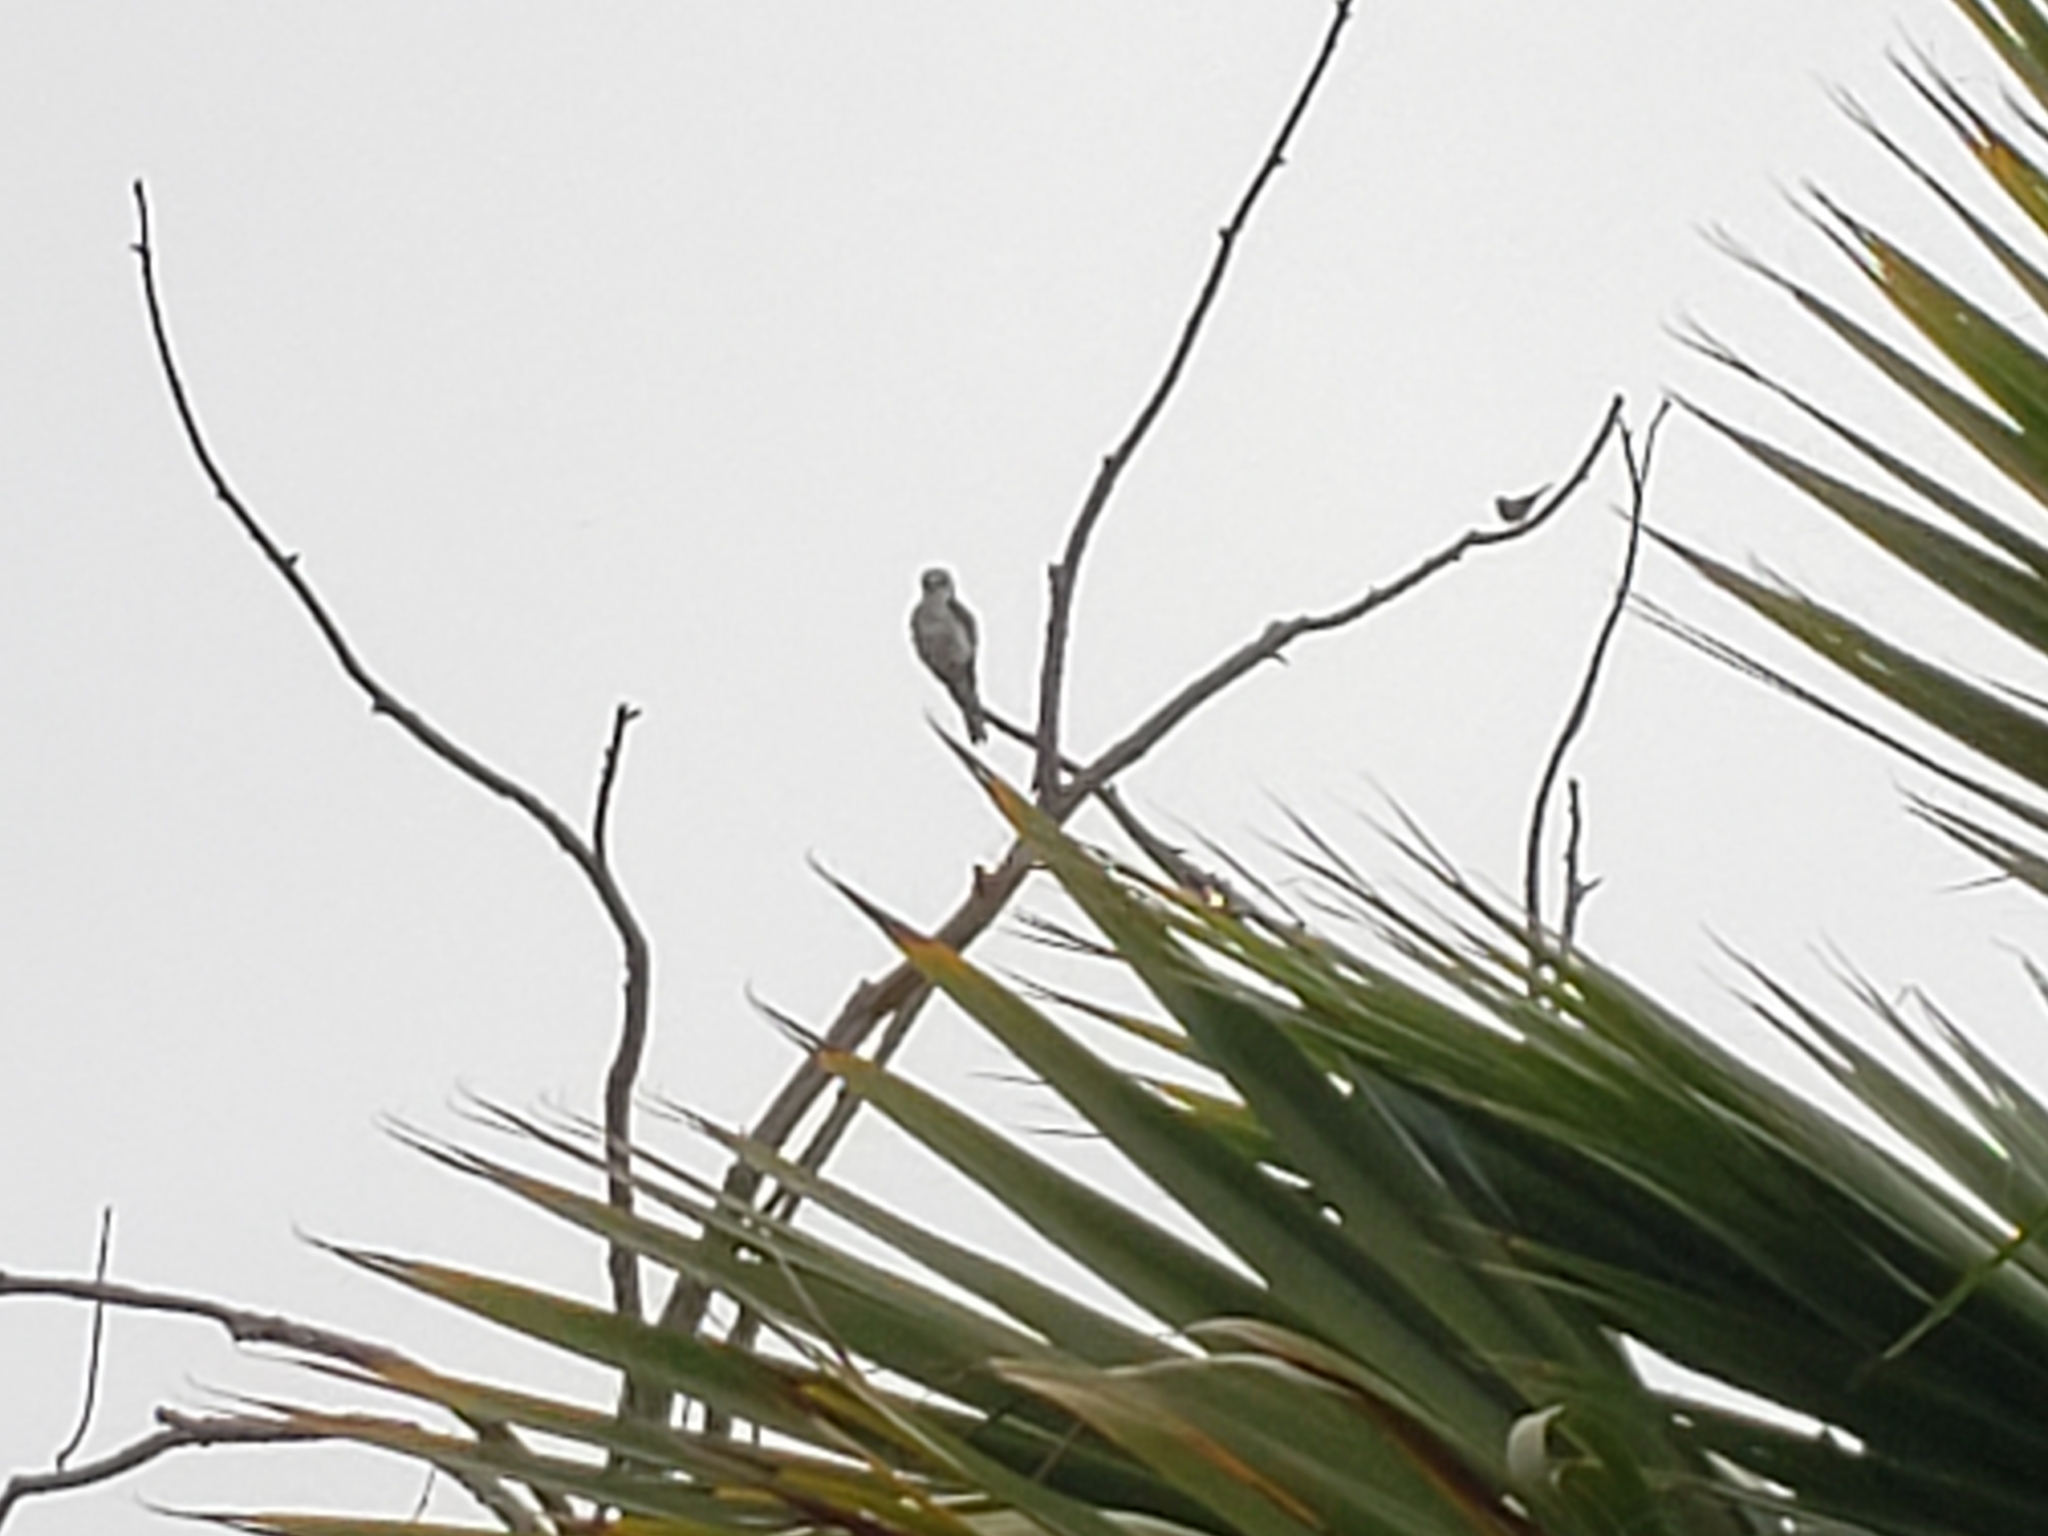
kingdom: Animalia
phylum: Chordata
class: Aves
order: Accipitriformes
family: Accipitridae
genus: Elanus
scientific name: Elanus leucurus
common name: White-tailed kite
